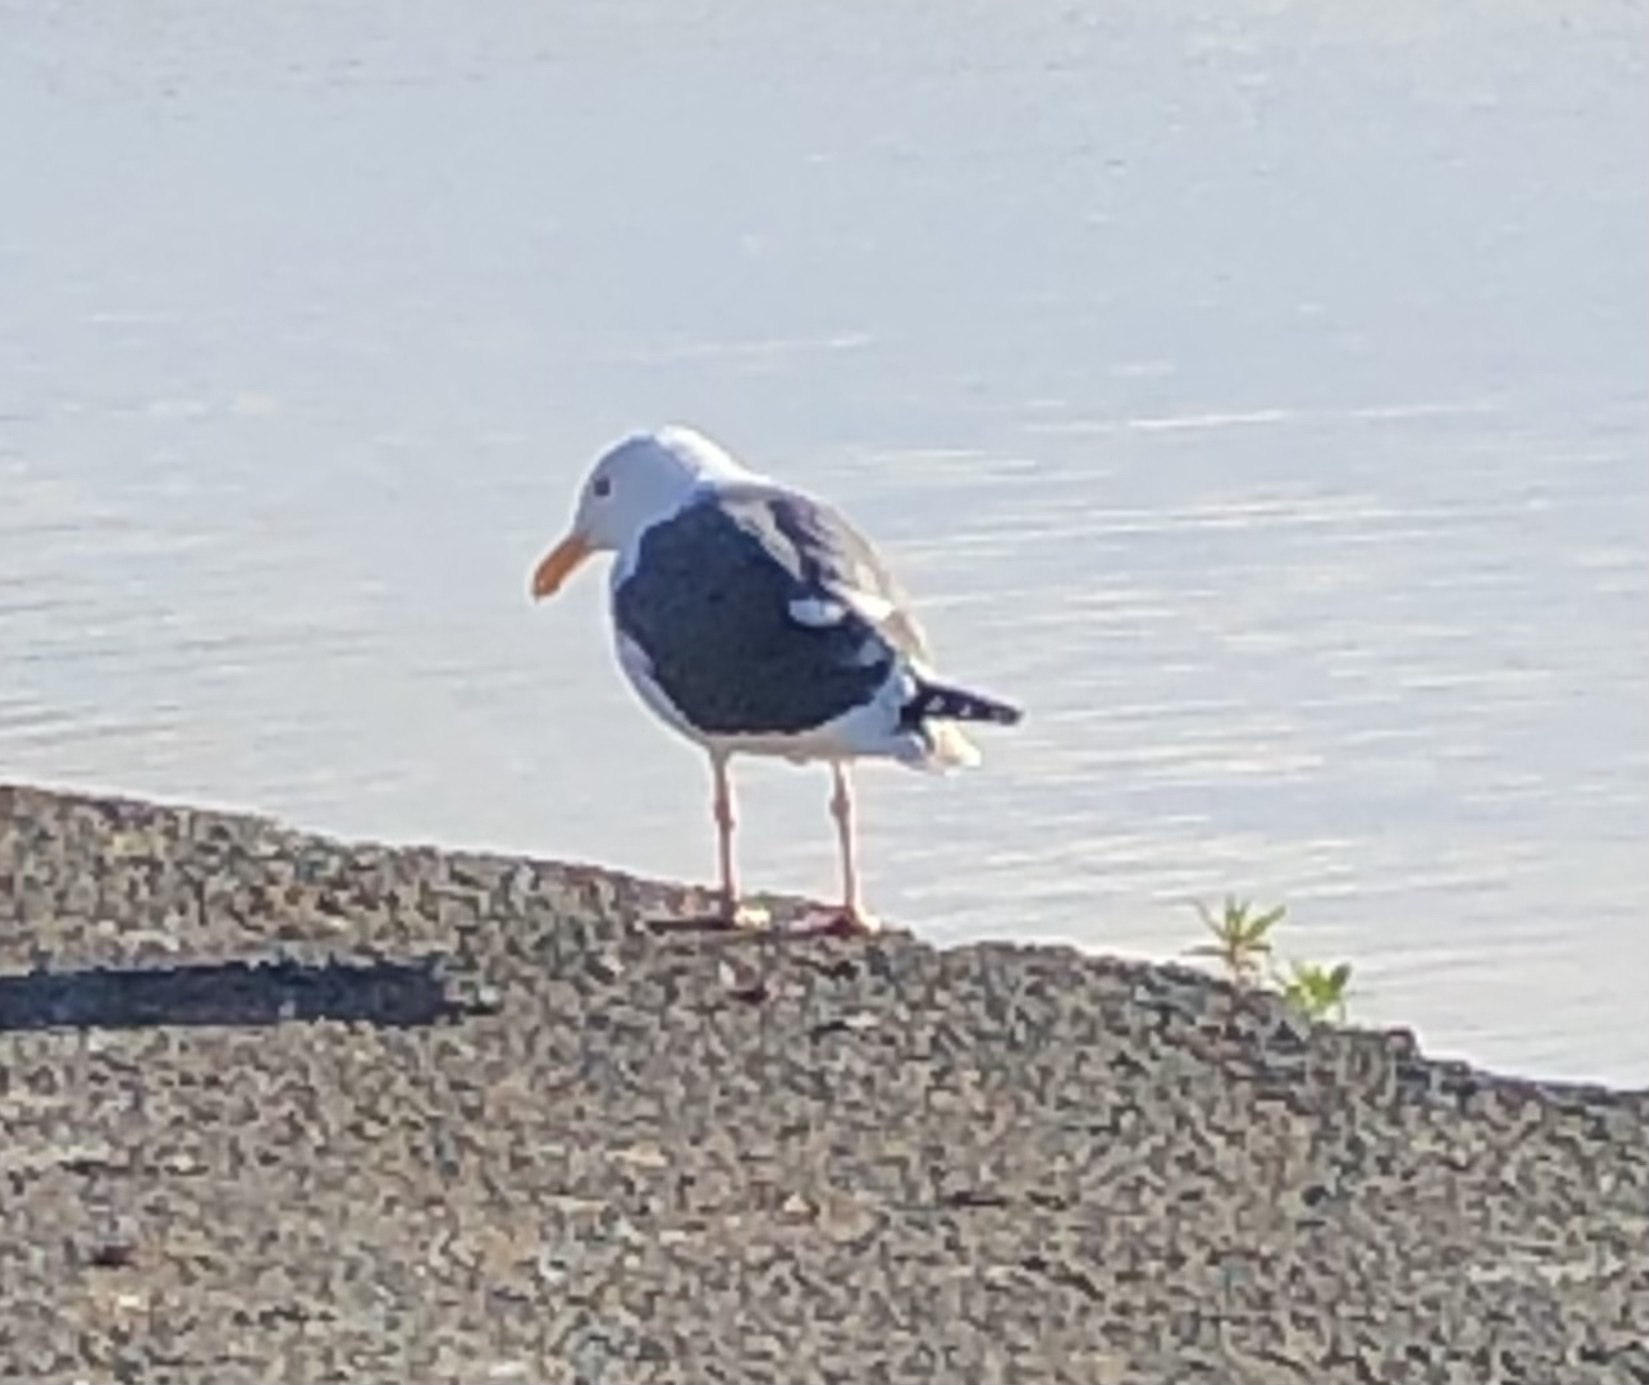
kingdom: Animalia
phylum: Chordata
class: Aves
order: Charadriiformes
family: Laridae
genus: Larus
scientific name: Larus occidentalis
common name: Western gull
